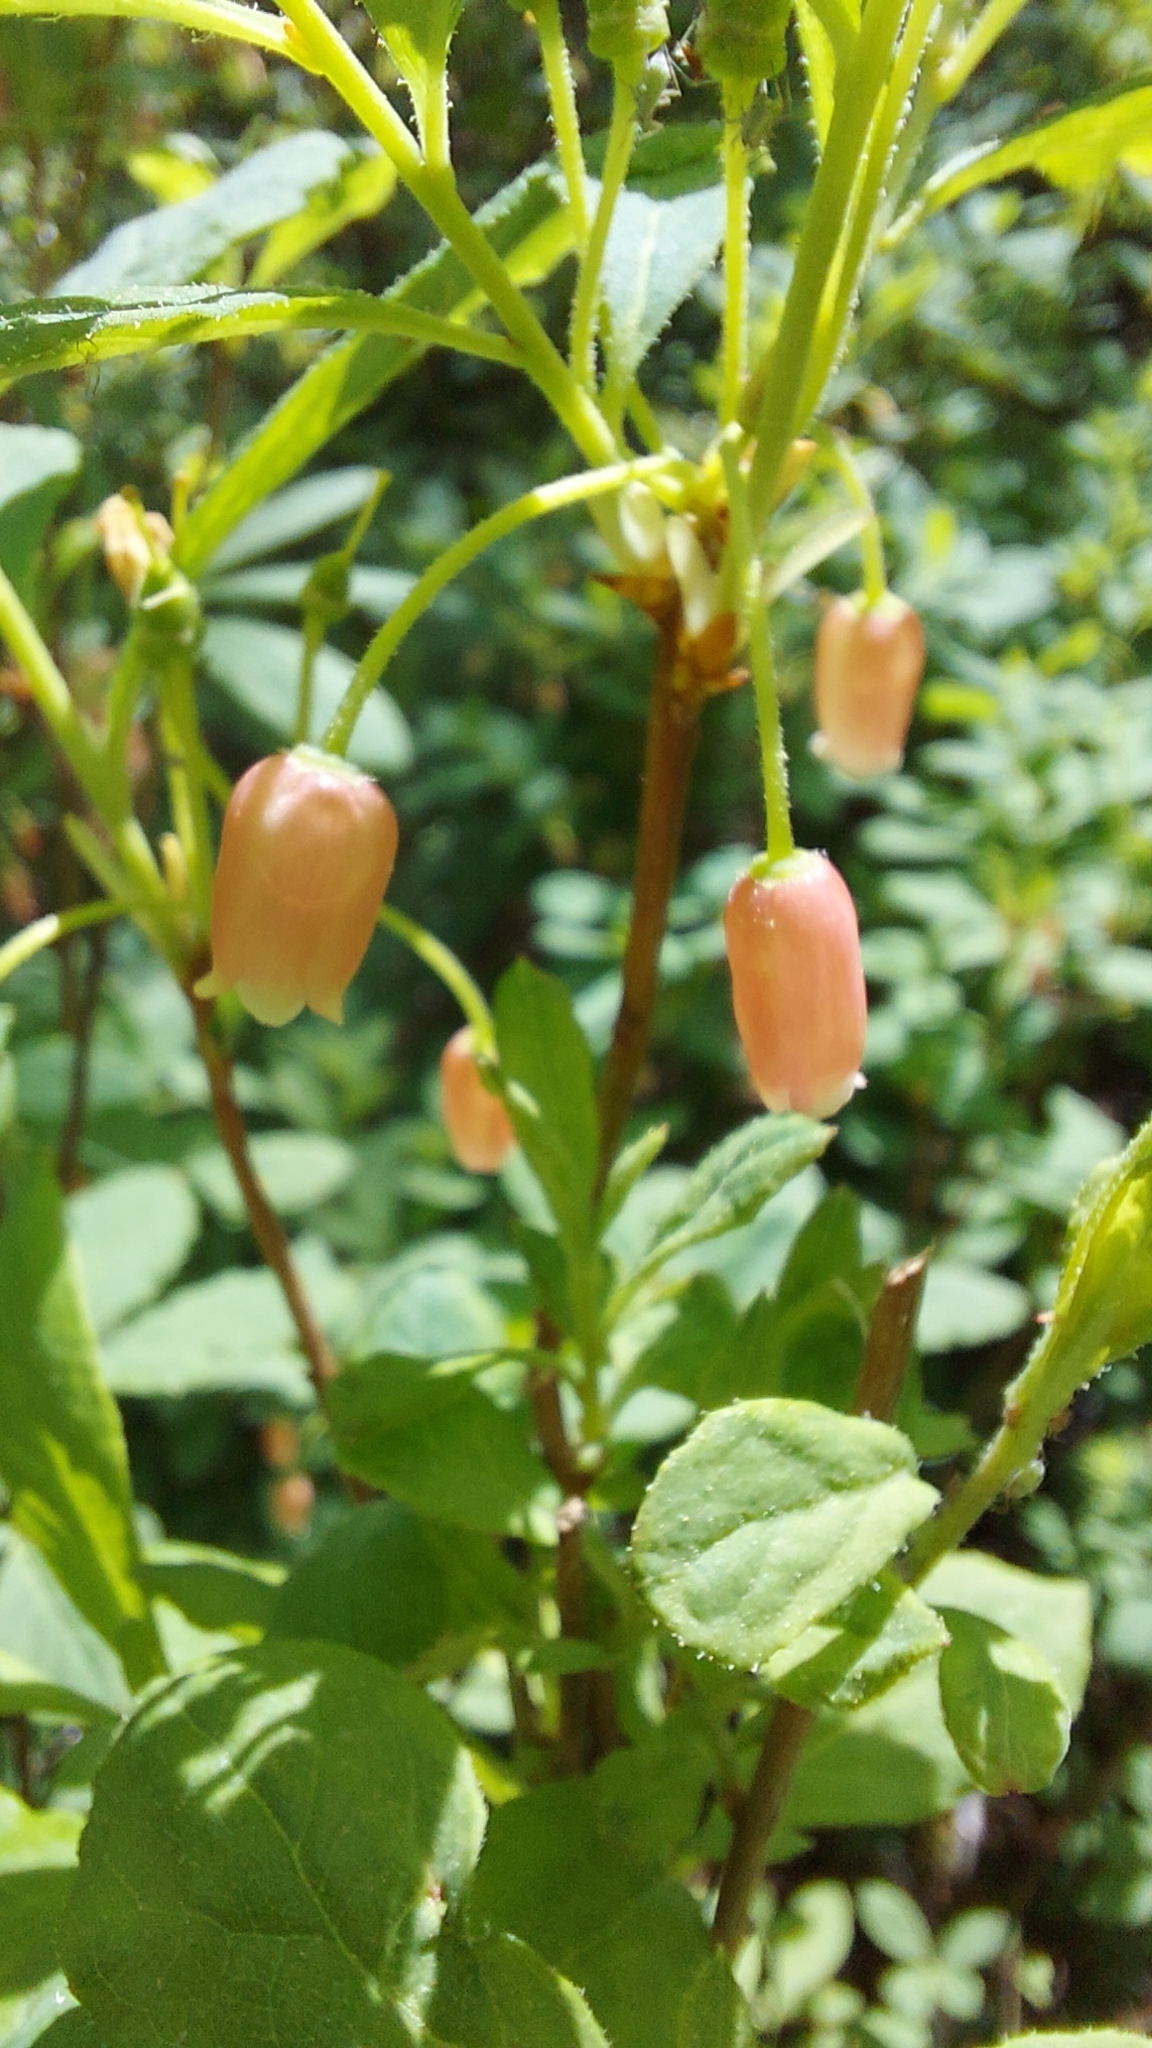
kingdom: Plantae
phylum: Tracheophyta
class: Magnoliopsida
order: Ericales
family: Ericaceae
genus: Rhododendron
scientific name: Rhododendron menziesii
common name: Pacific menziesia
